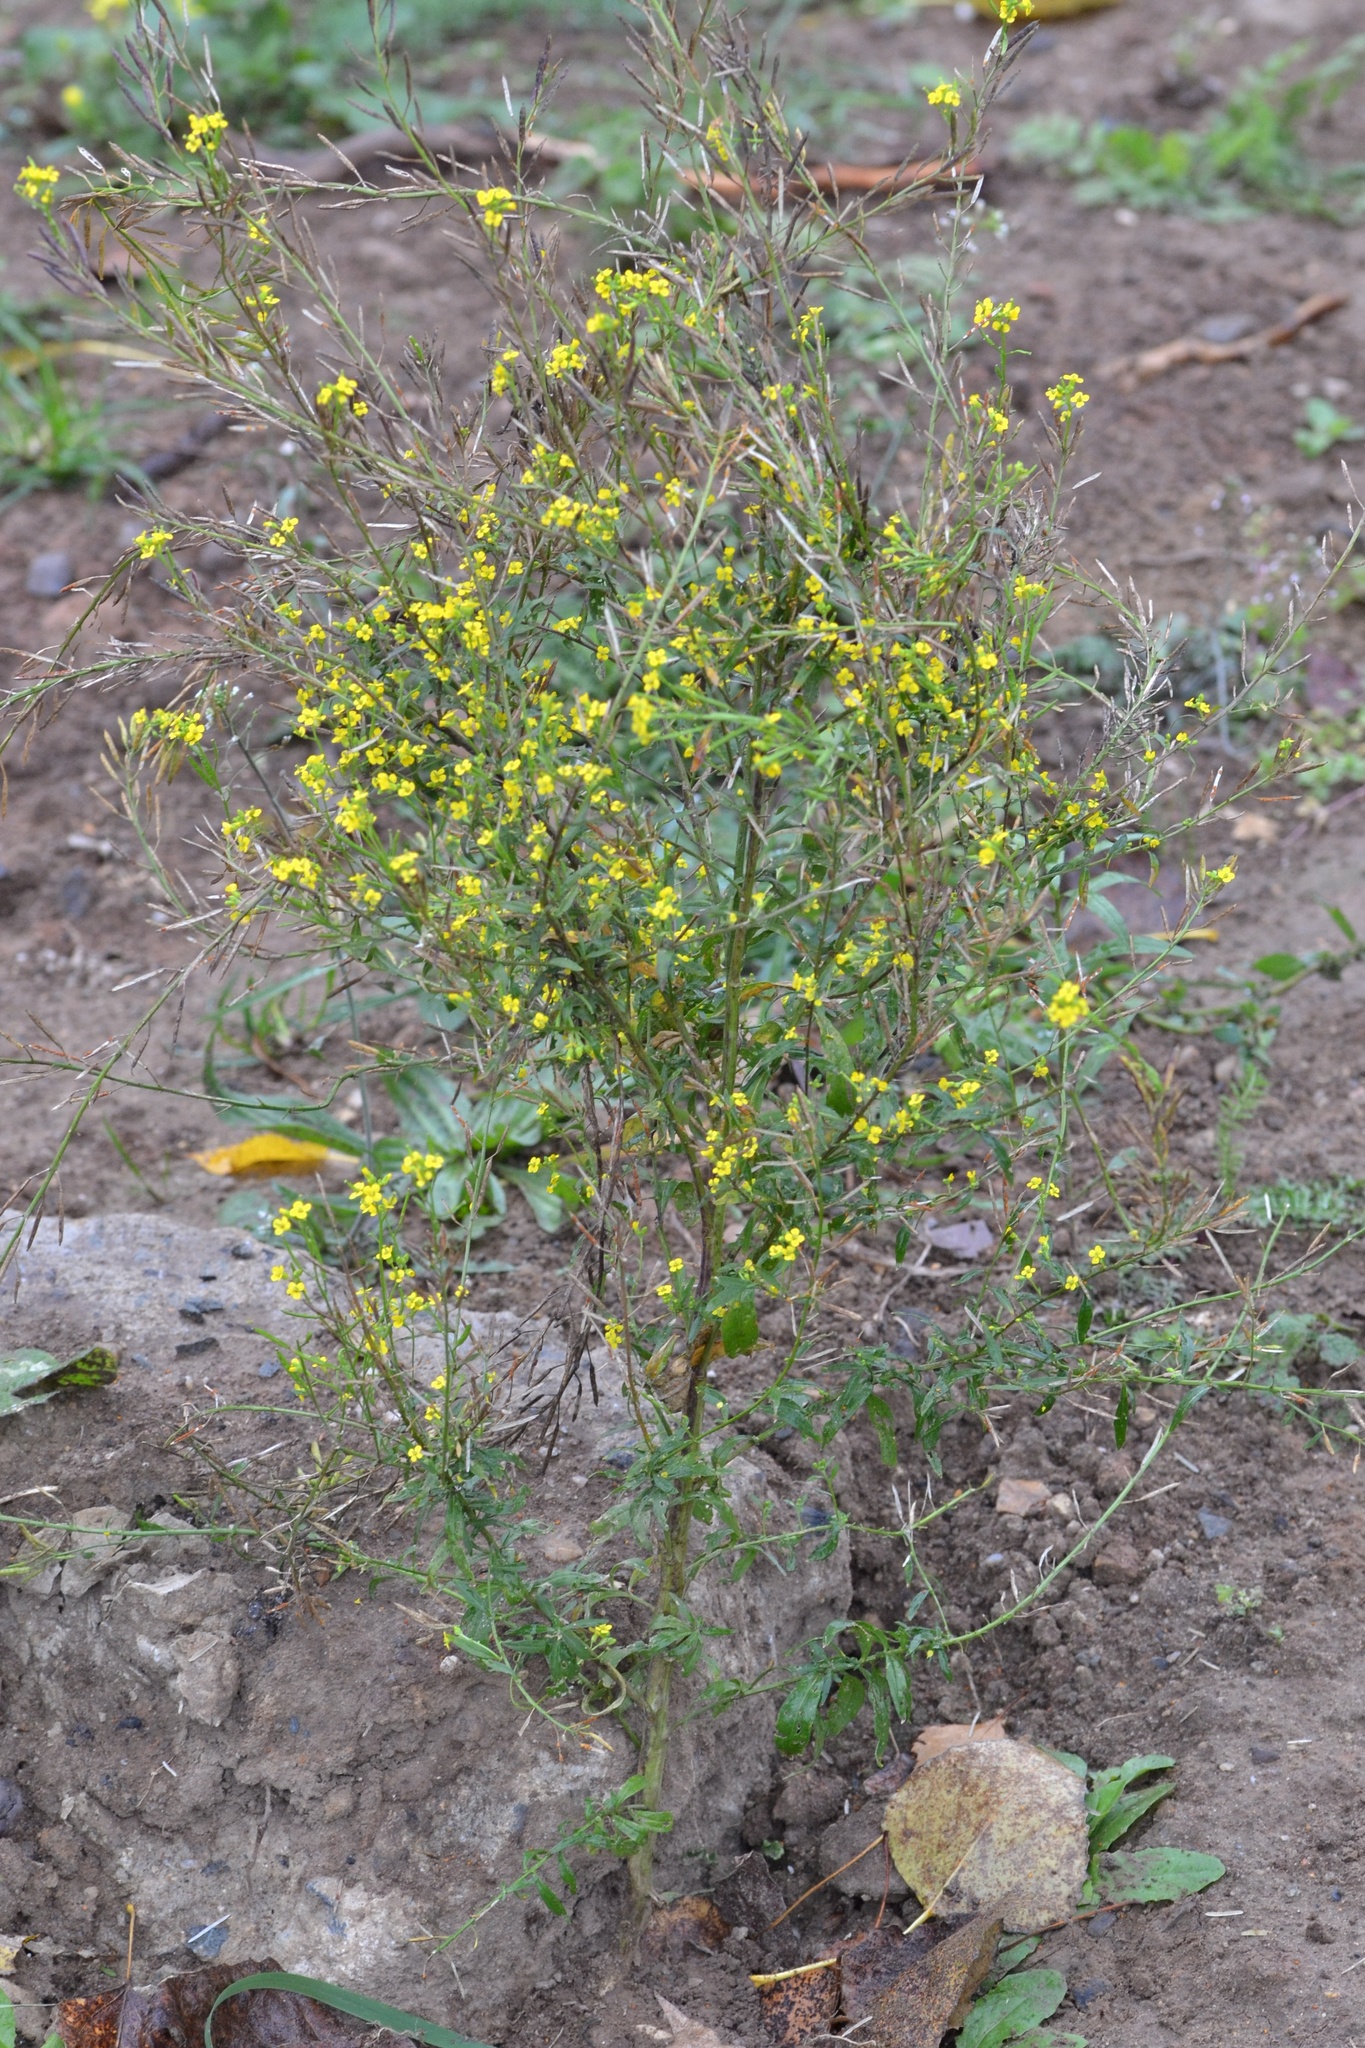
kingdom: Plantae
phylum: Tracheophyta
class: Magnoliopsida
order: Brassicales
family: Brassicaceae
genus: Erysimum
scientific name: Erysimum cheiranthoides
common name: Treacle mustard
